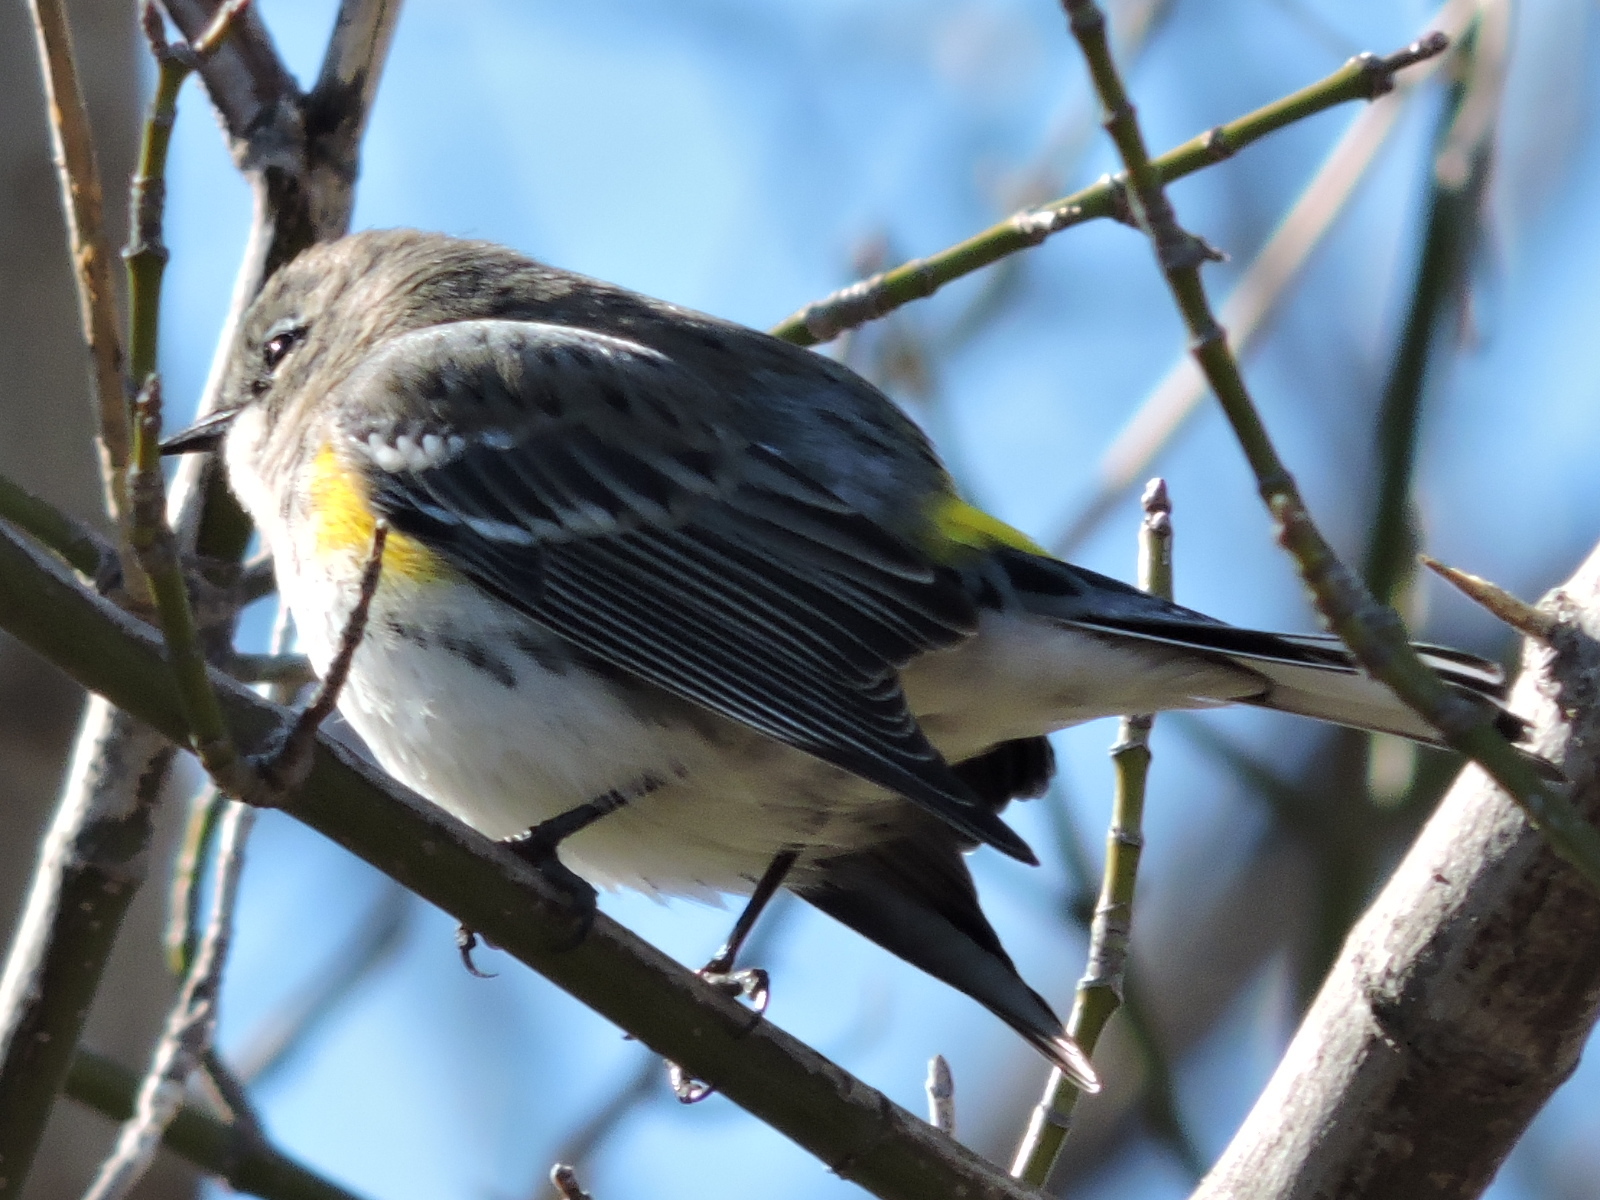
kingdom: Animalia
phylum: Chordata
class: Aves
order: Passeriformes
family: Parulidae
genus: Setophaga
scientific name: Setophaga coronata
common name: Myrtle warbler
